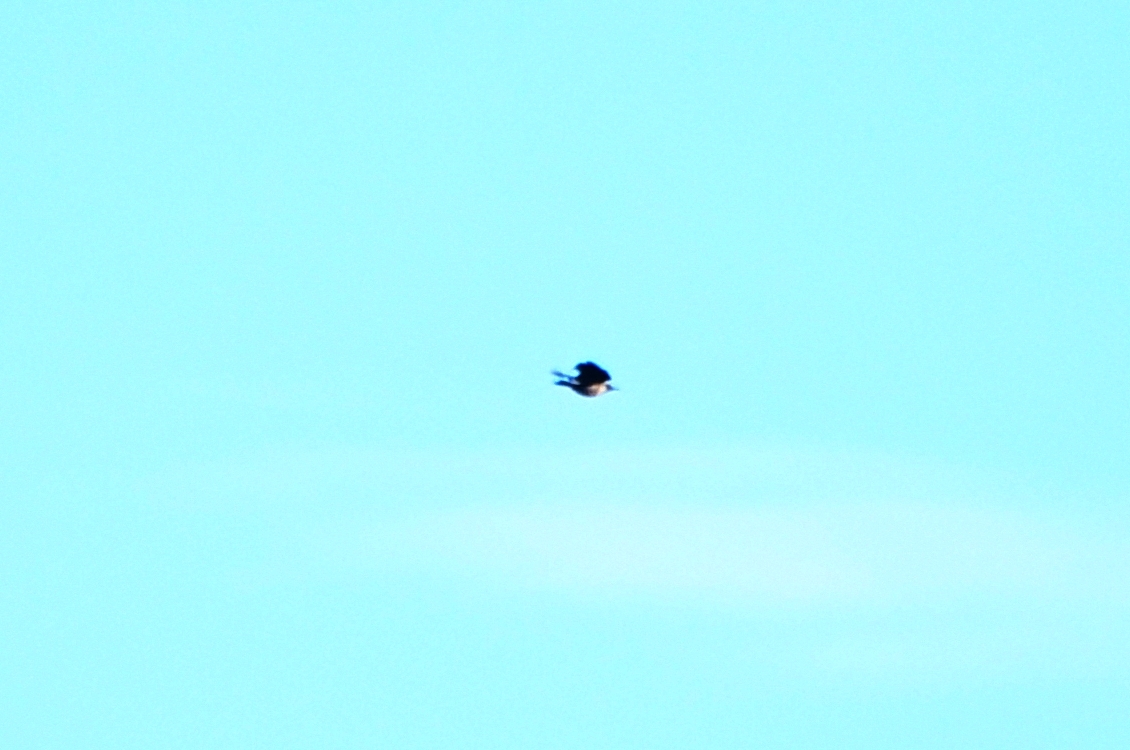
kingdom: Animalia
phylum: Chordata
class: Aves
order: Piciformes
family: Picidae
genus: Melanerpes
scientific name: Melanerpes lewis
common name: Lewis's woodpecker
